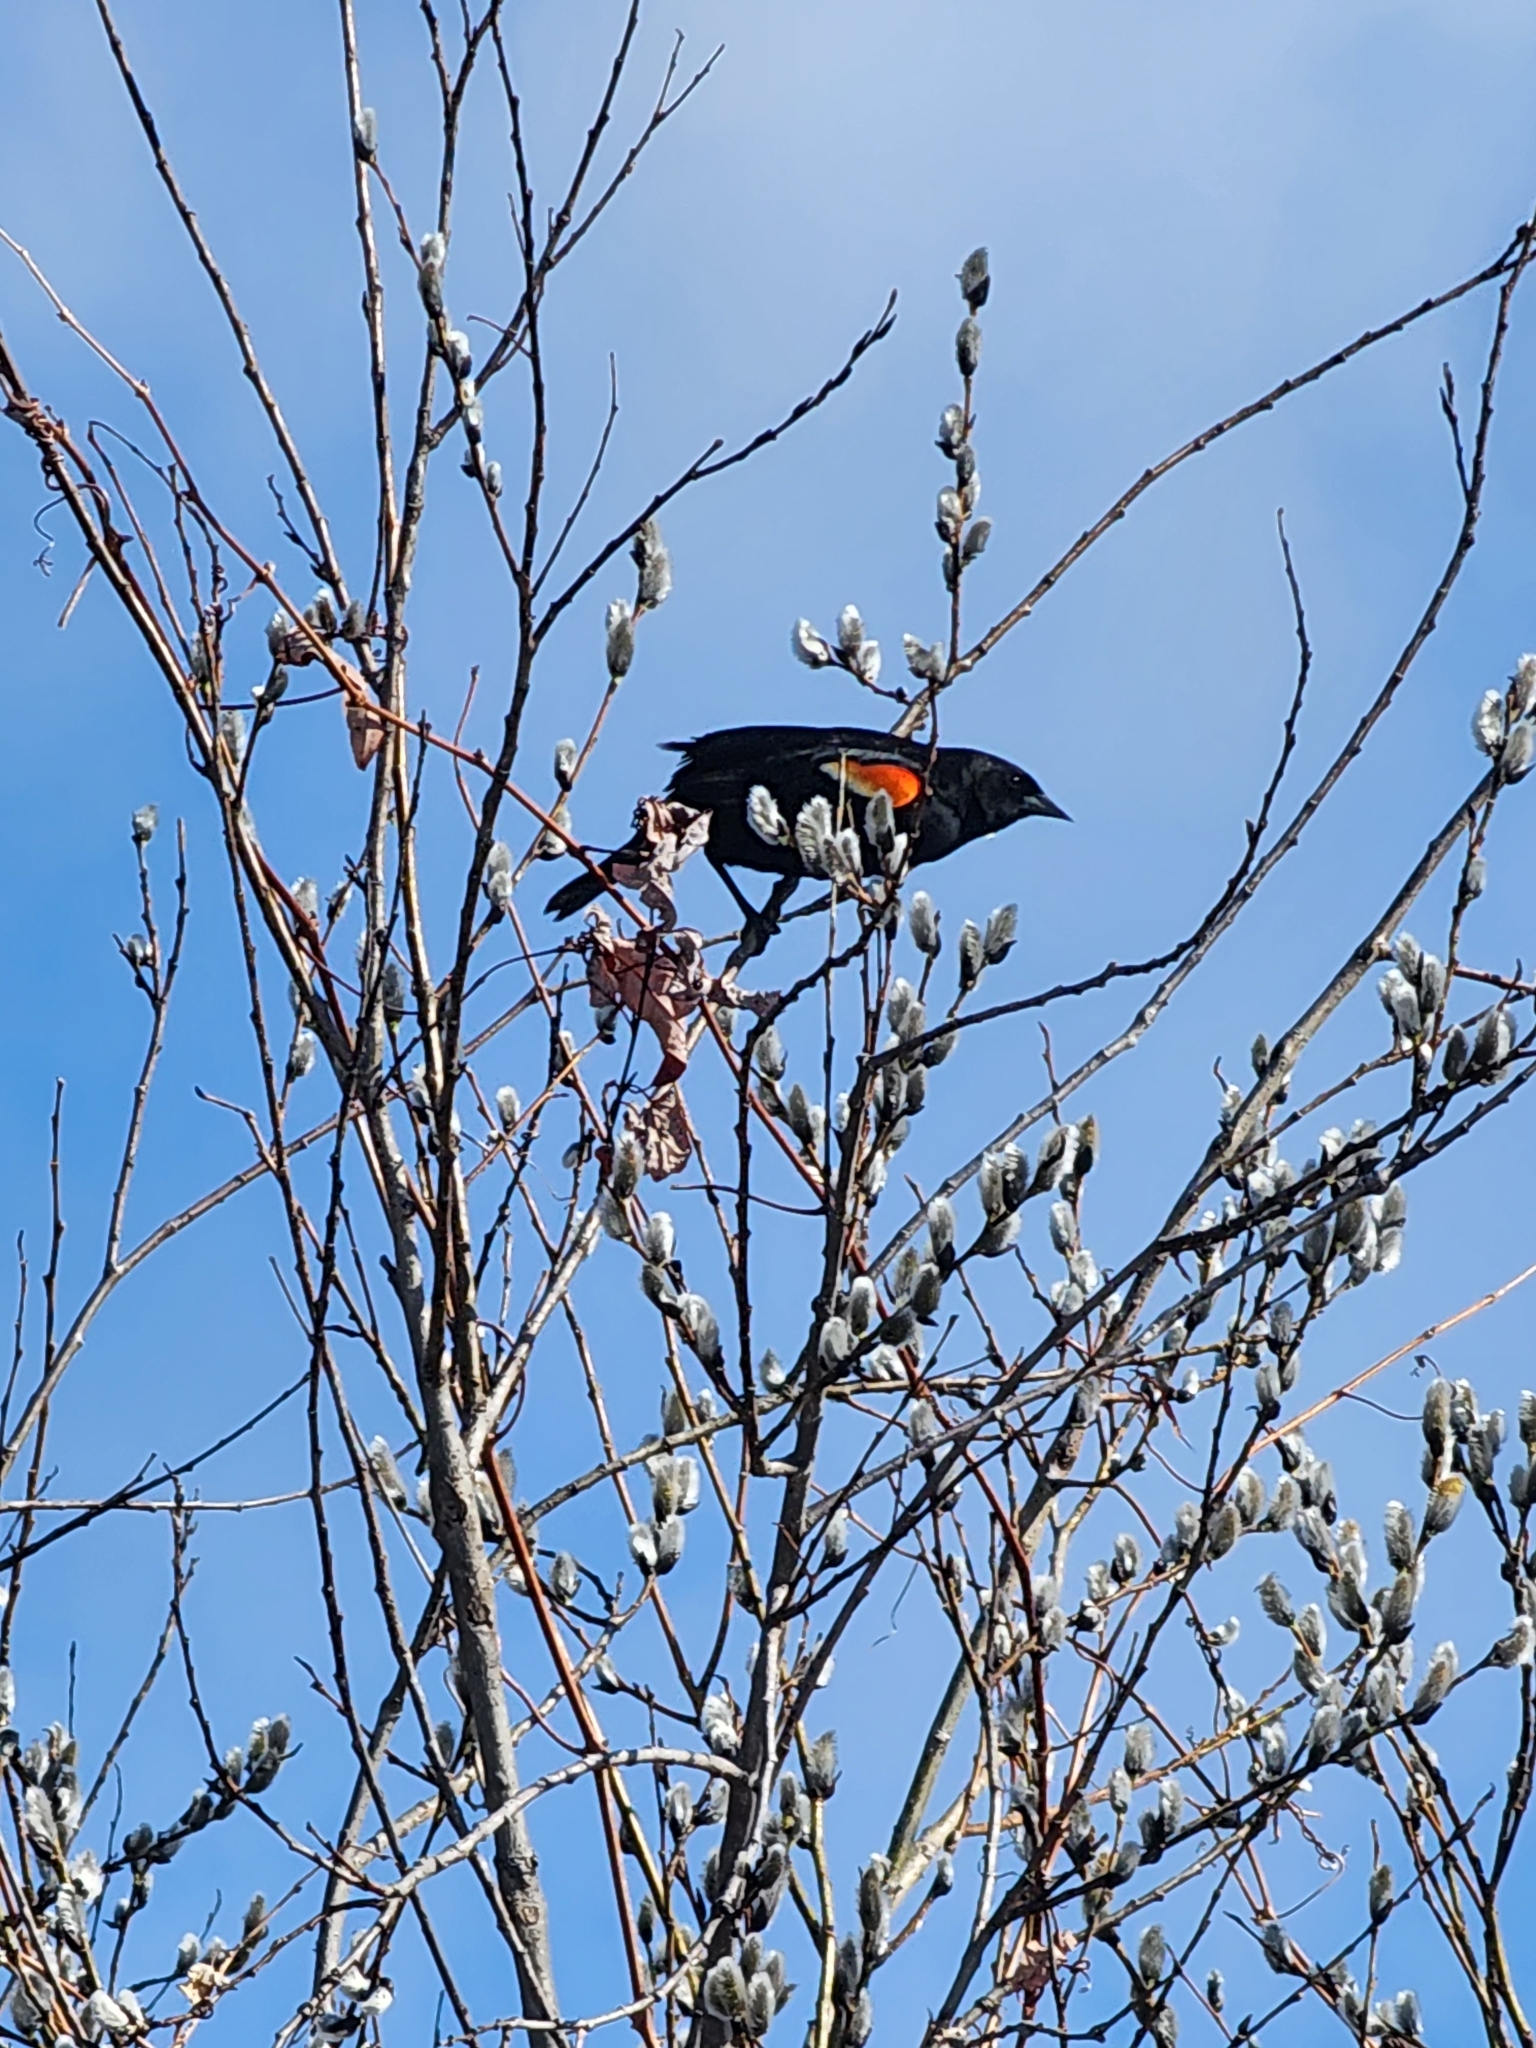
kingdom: Animalia
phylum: Chordata
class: Aves
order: Passeriformes
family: Icteridae
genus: Agelaius
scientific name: Agelaius phoeniceus
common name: Red-winged blackbird
